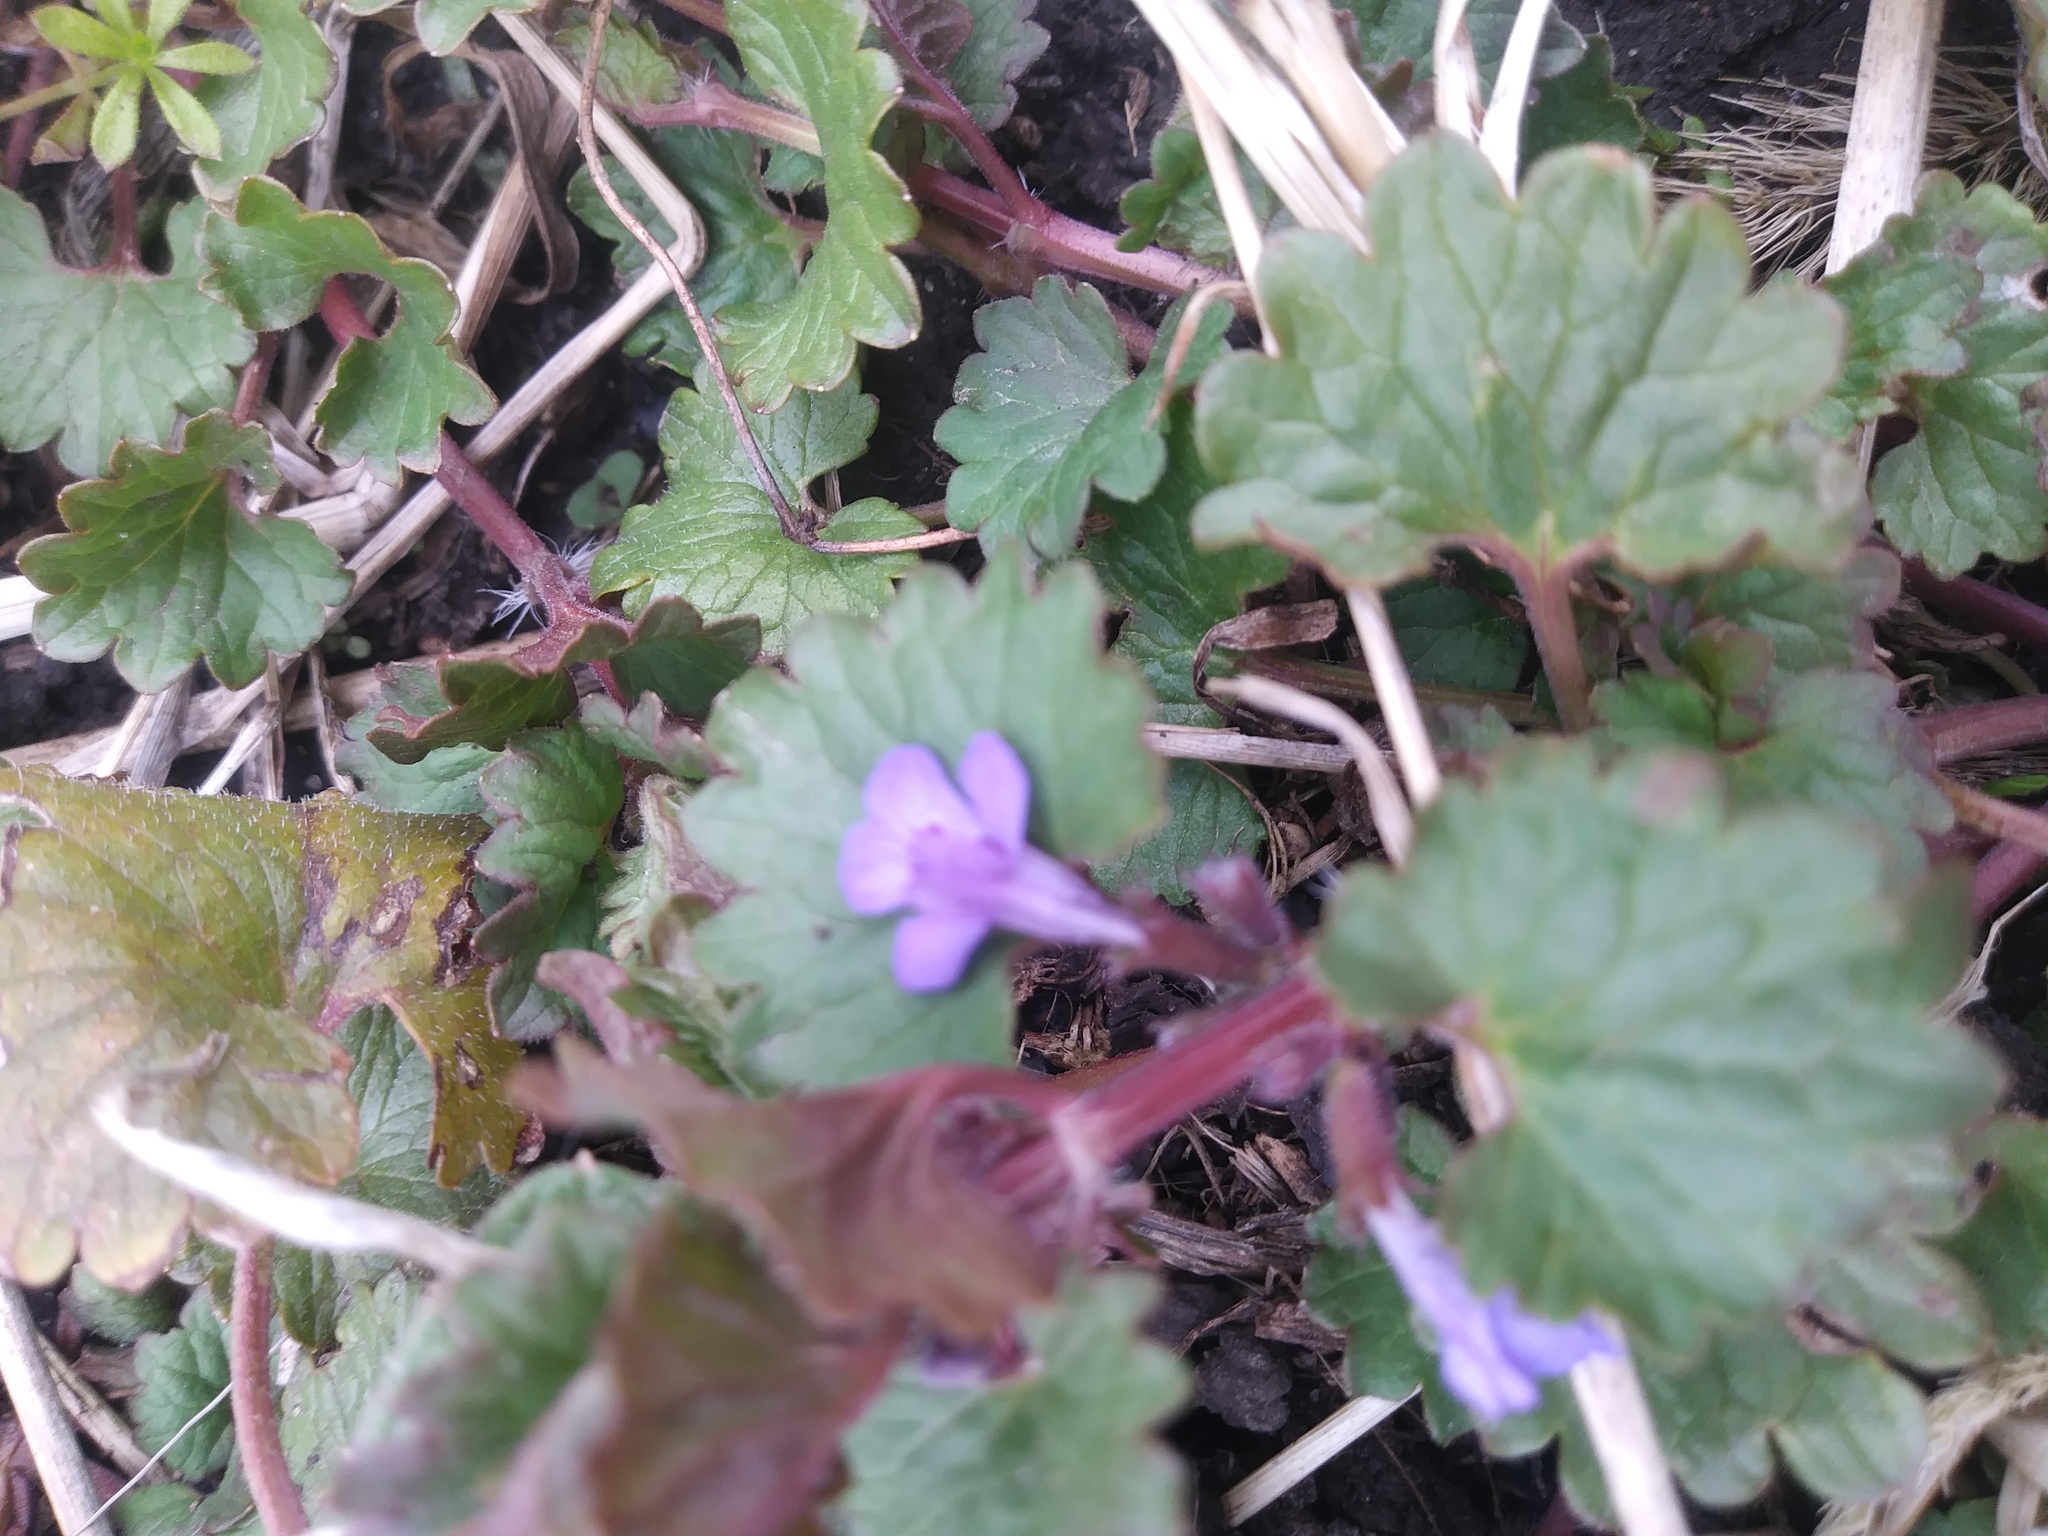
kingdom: Plantae
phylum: Tracheophyta
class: Magnoliopsida
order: Lamiales
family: Lamiaceae
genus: Glechoma
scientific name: Glechoma hederacea
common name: Ground ivy
